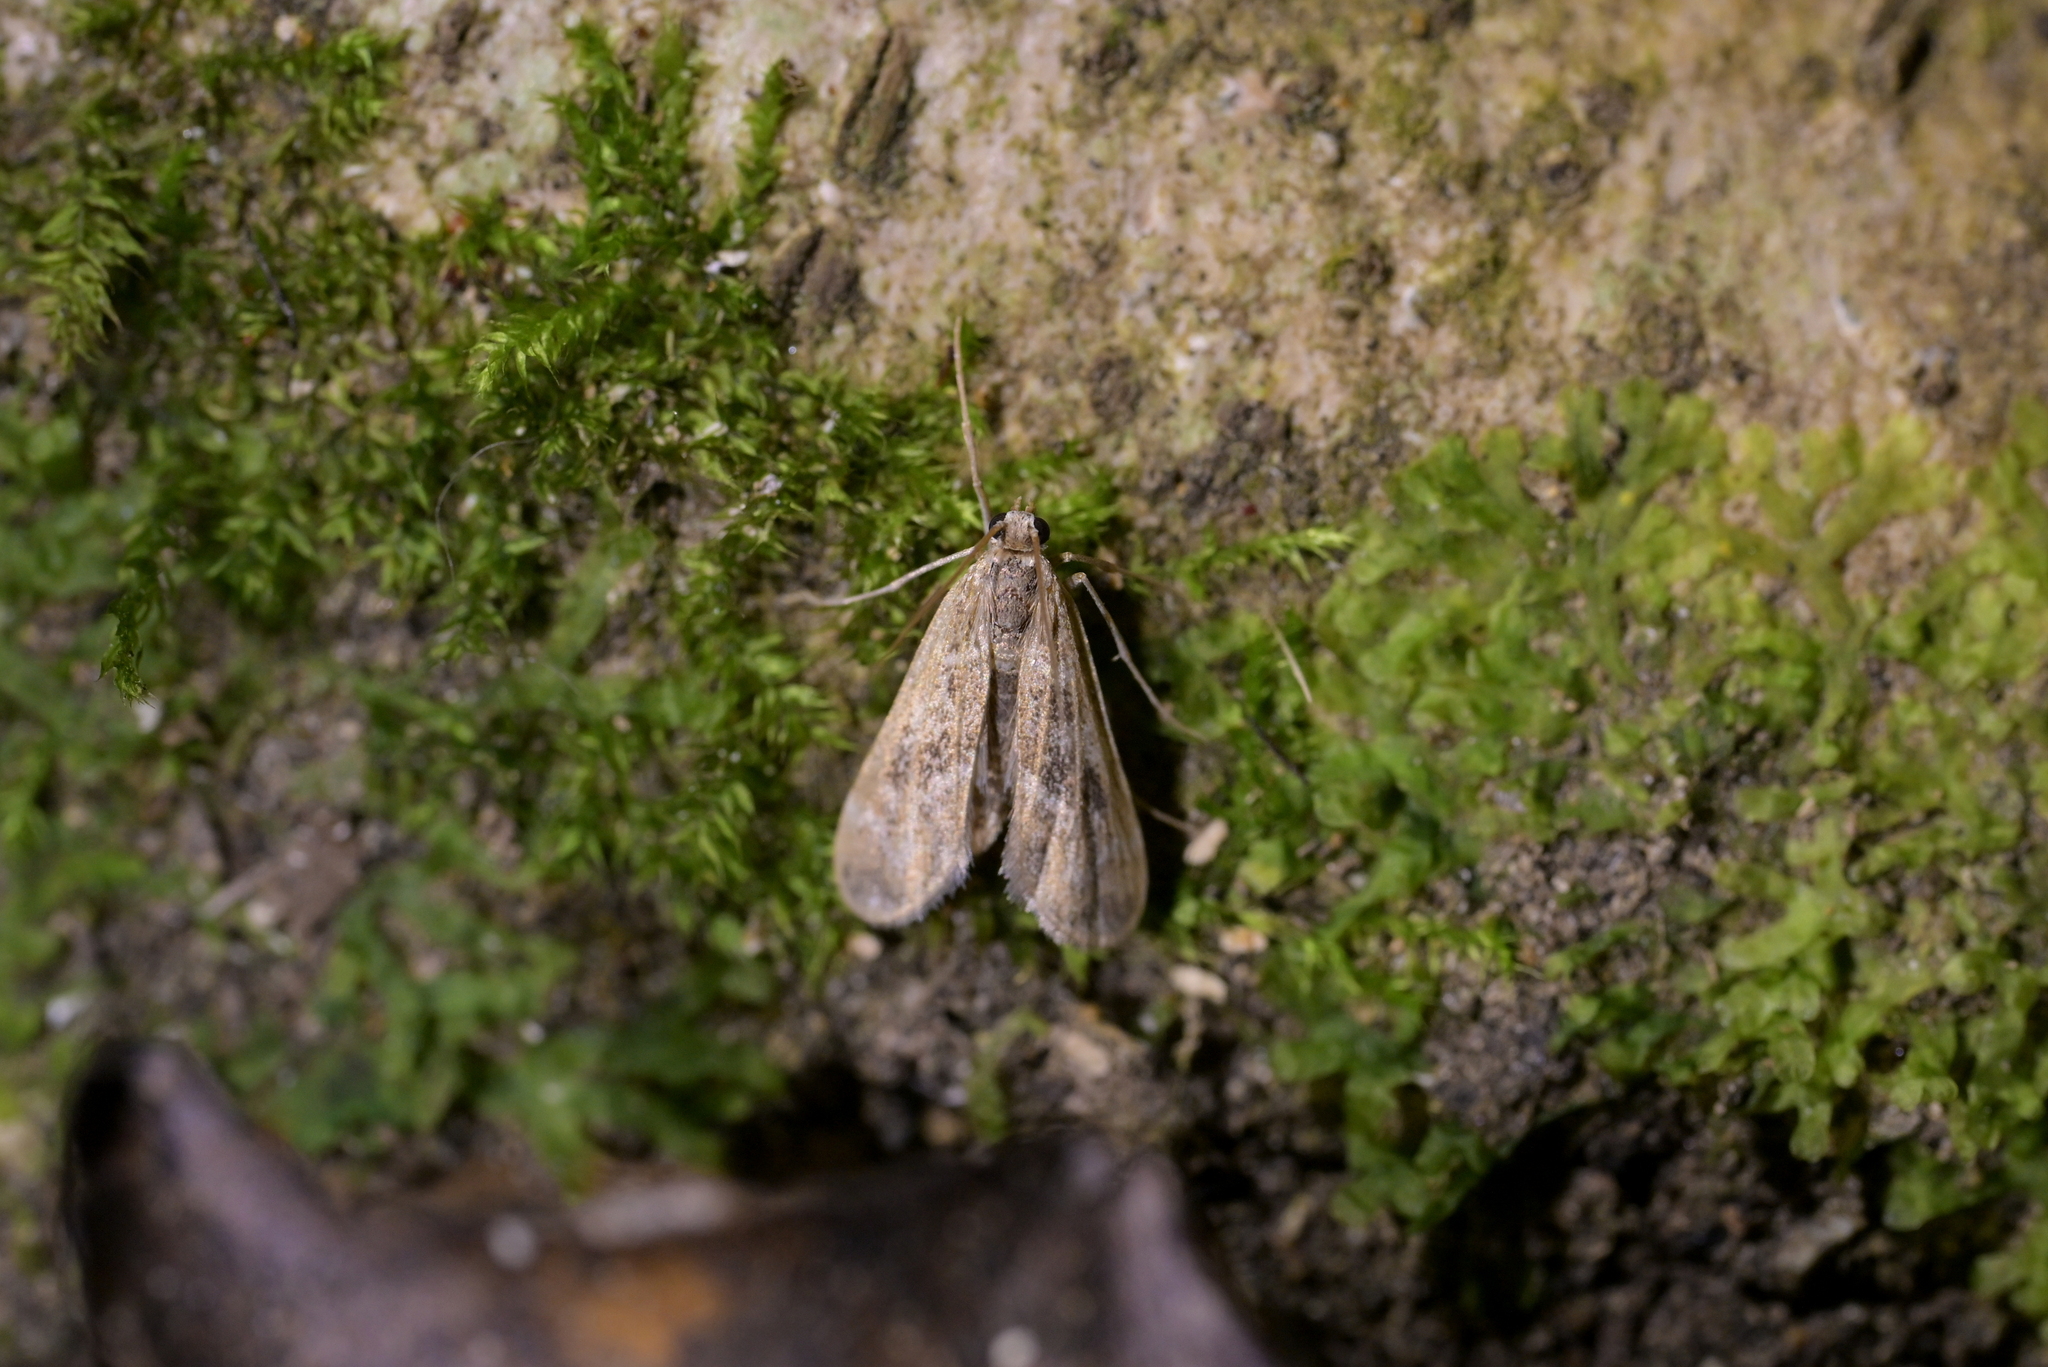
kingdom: Animalia
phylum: Arthropoda
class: Insecta
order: Lepidoptera
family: Crambidae
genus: Hygraula
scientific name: Hygraula nitens
